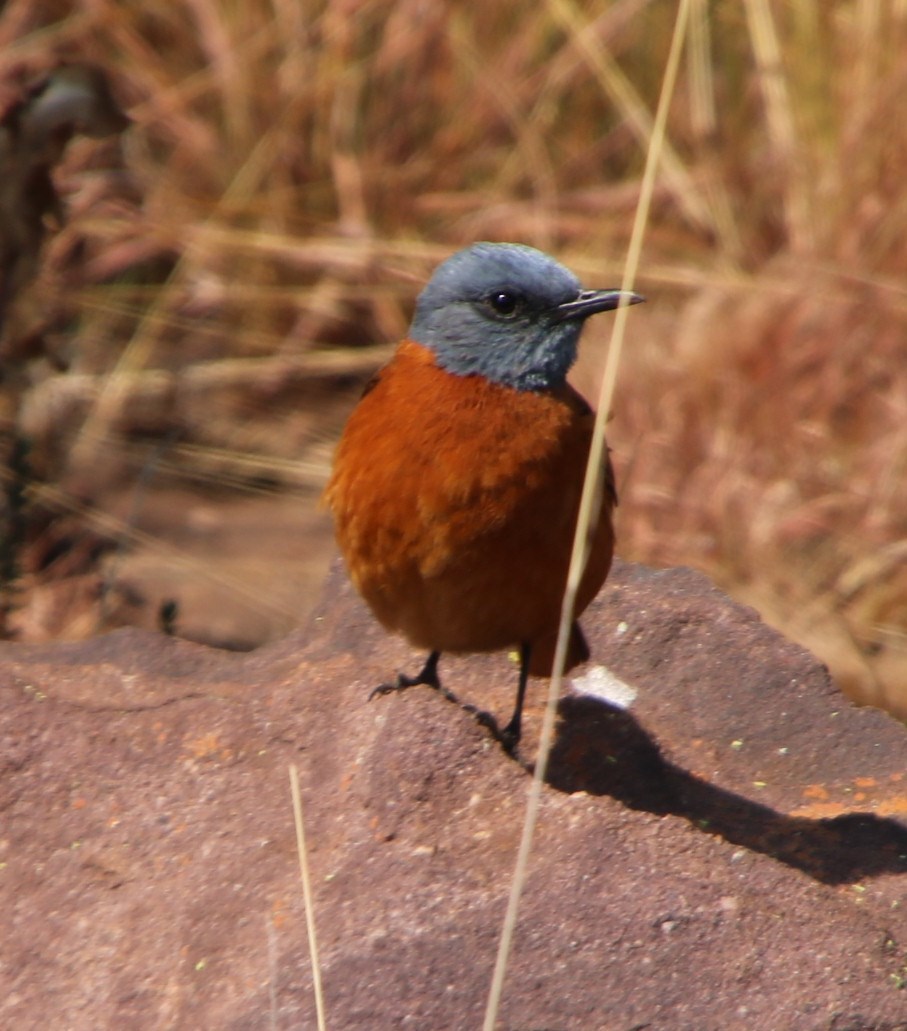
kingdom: Animalia
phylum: Chordata
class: Aves
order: Passeriformes
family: Muscicapidae
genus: Monticola
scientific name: Monticola rupestris
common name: Cape rock thrush
